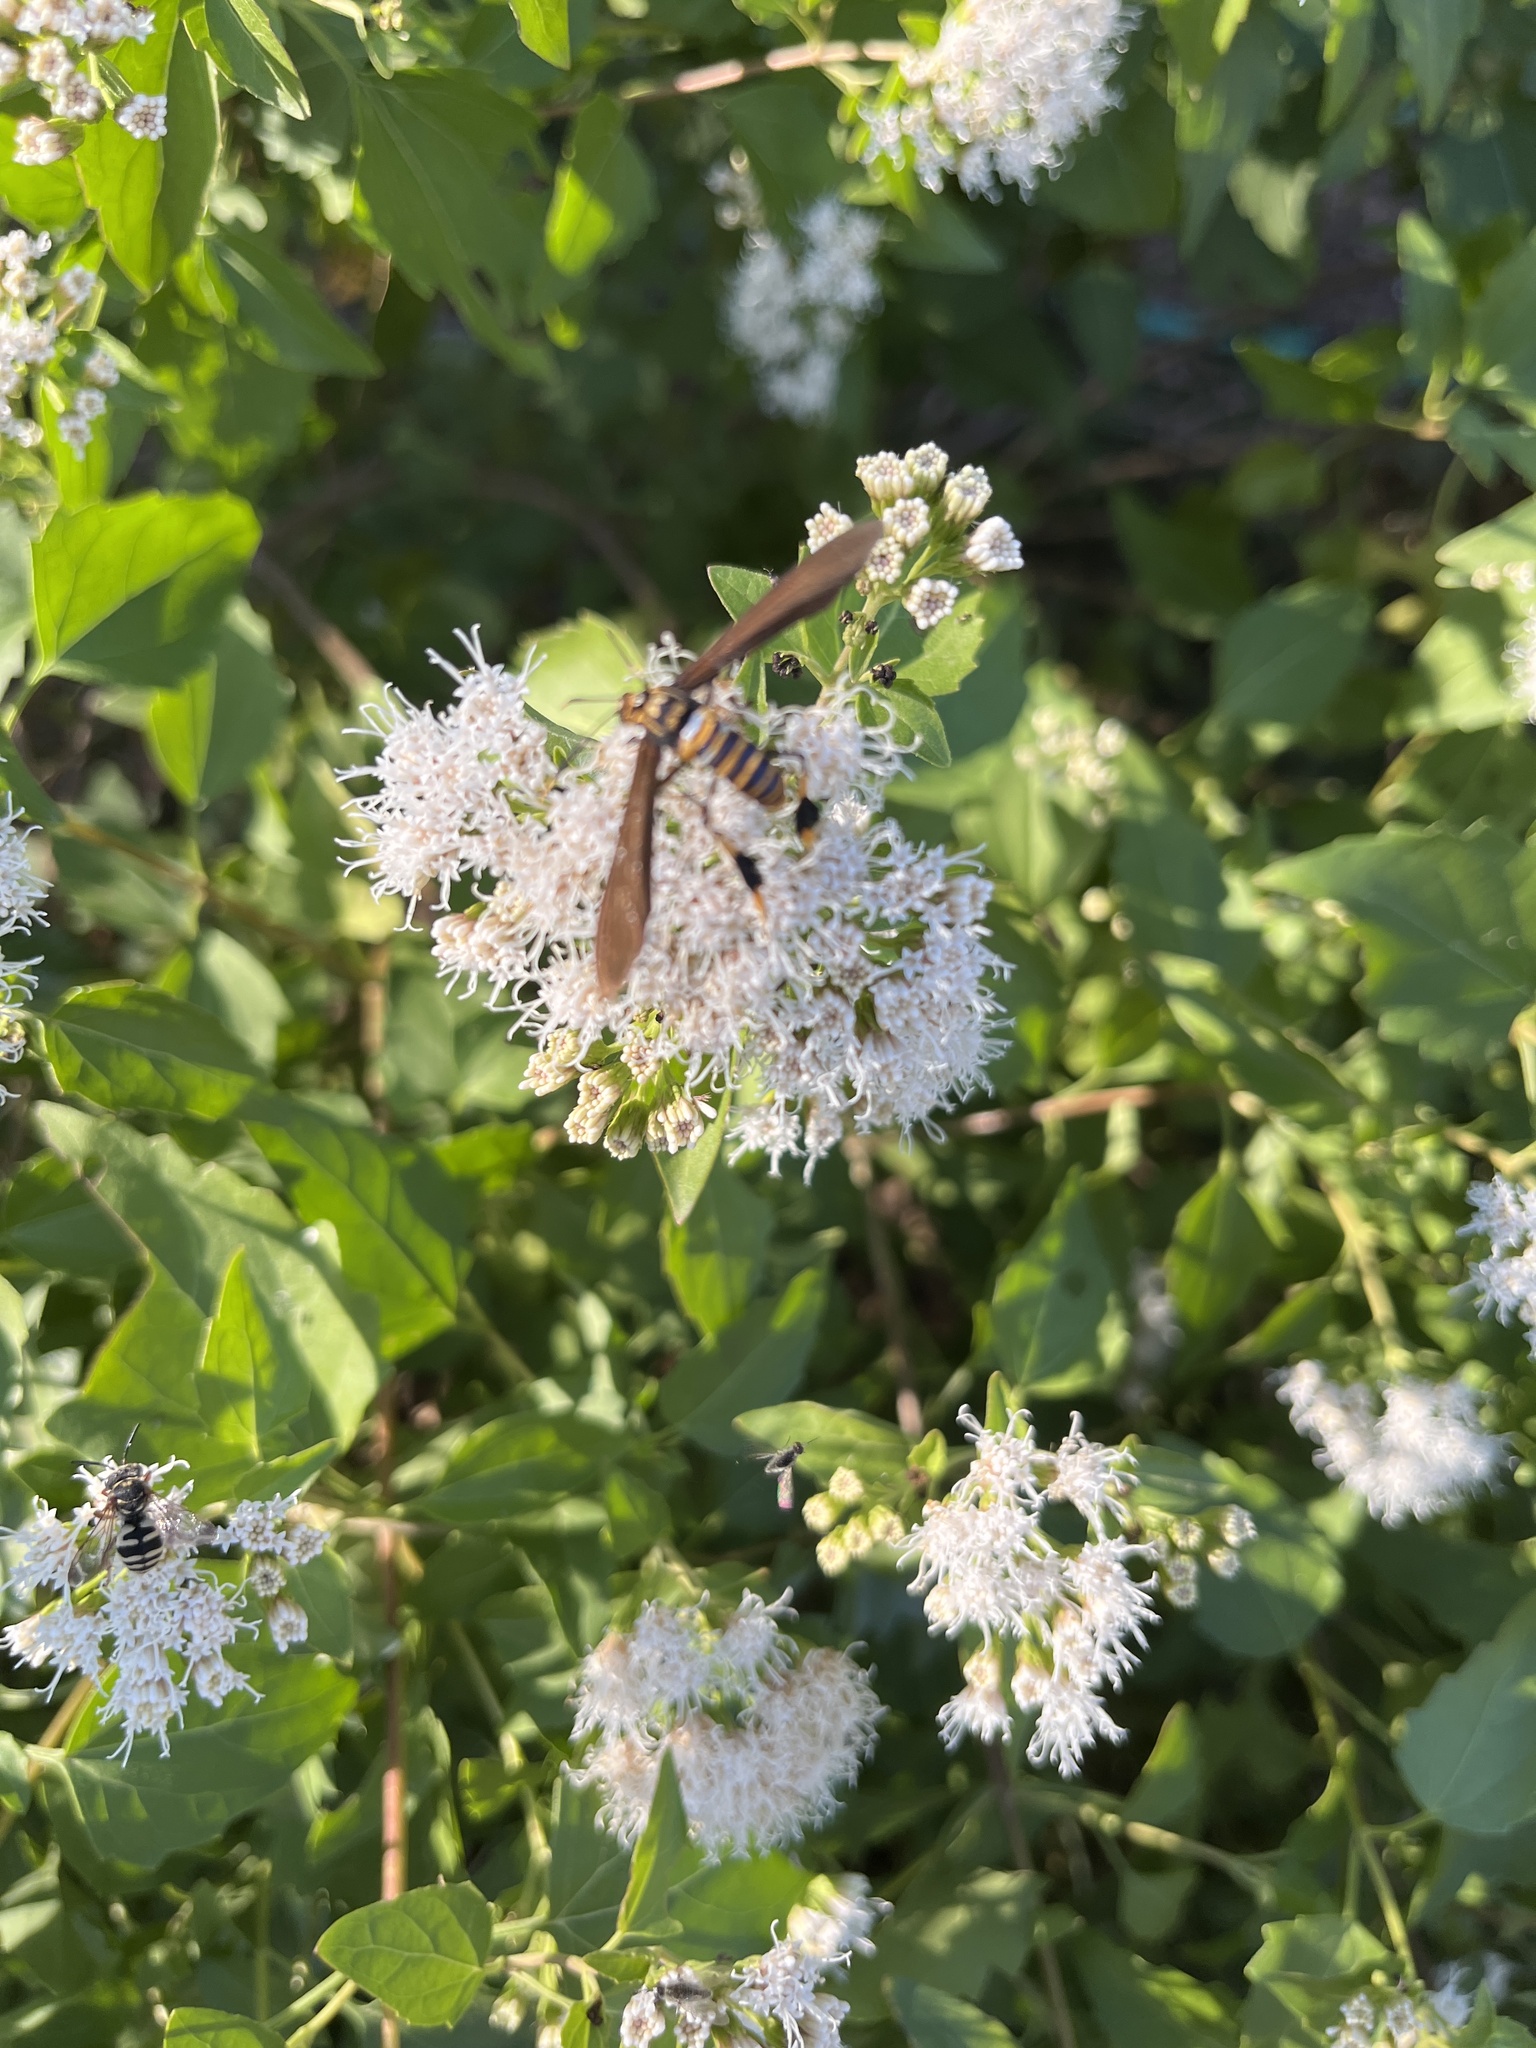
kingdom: Animalia
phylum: Arthropoda
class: Insecta
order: Lepidoptera
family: Erebidae
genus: Horama
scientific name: Horama panthalon
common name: Texas wasp moth
